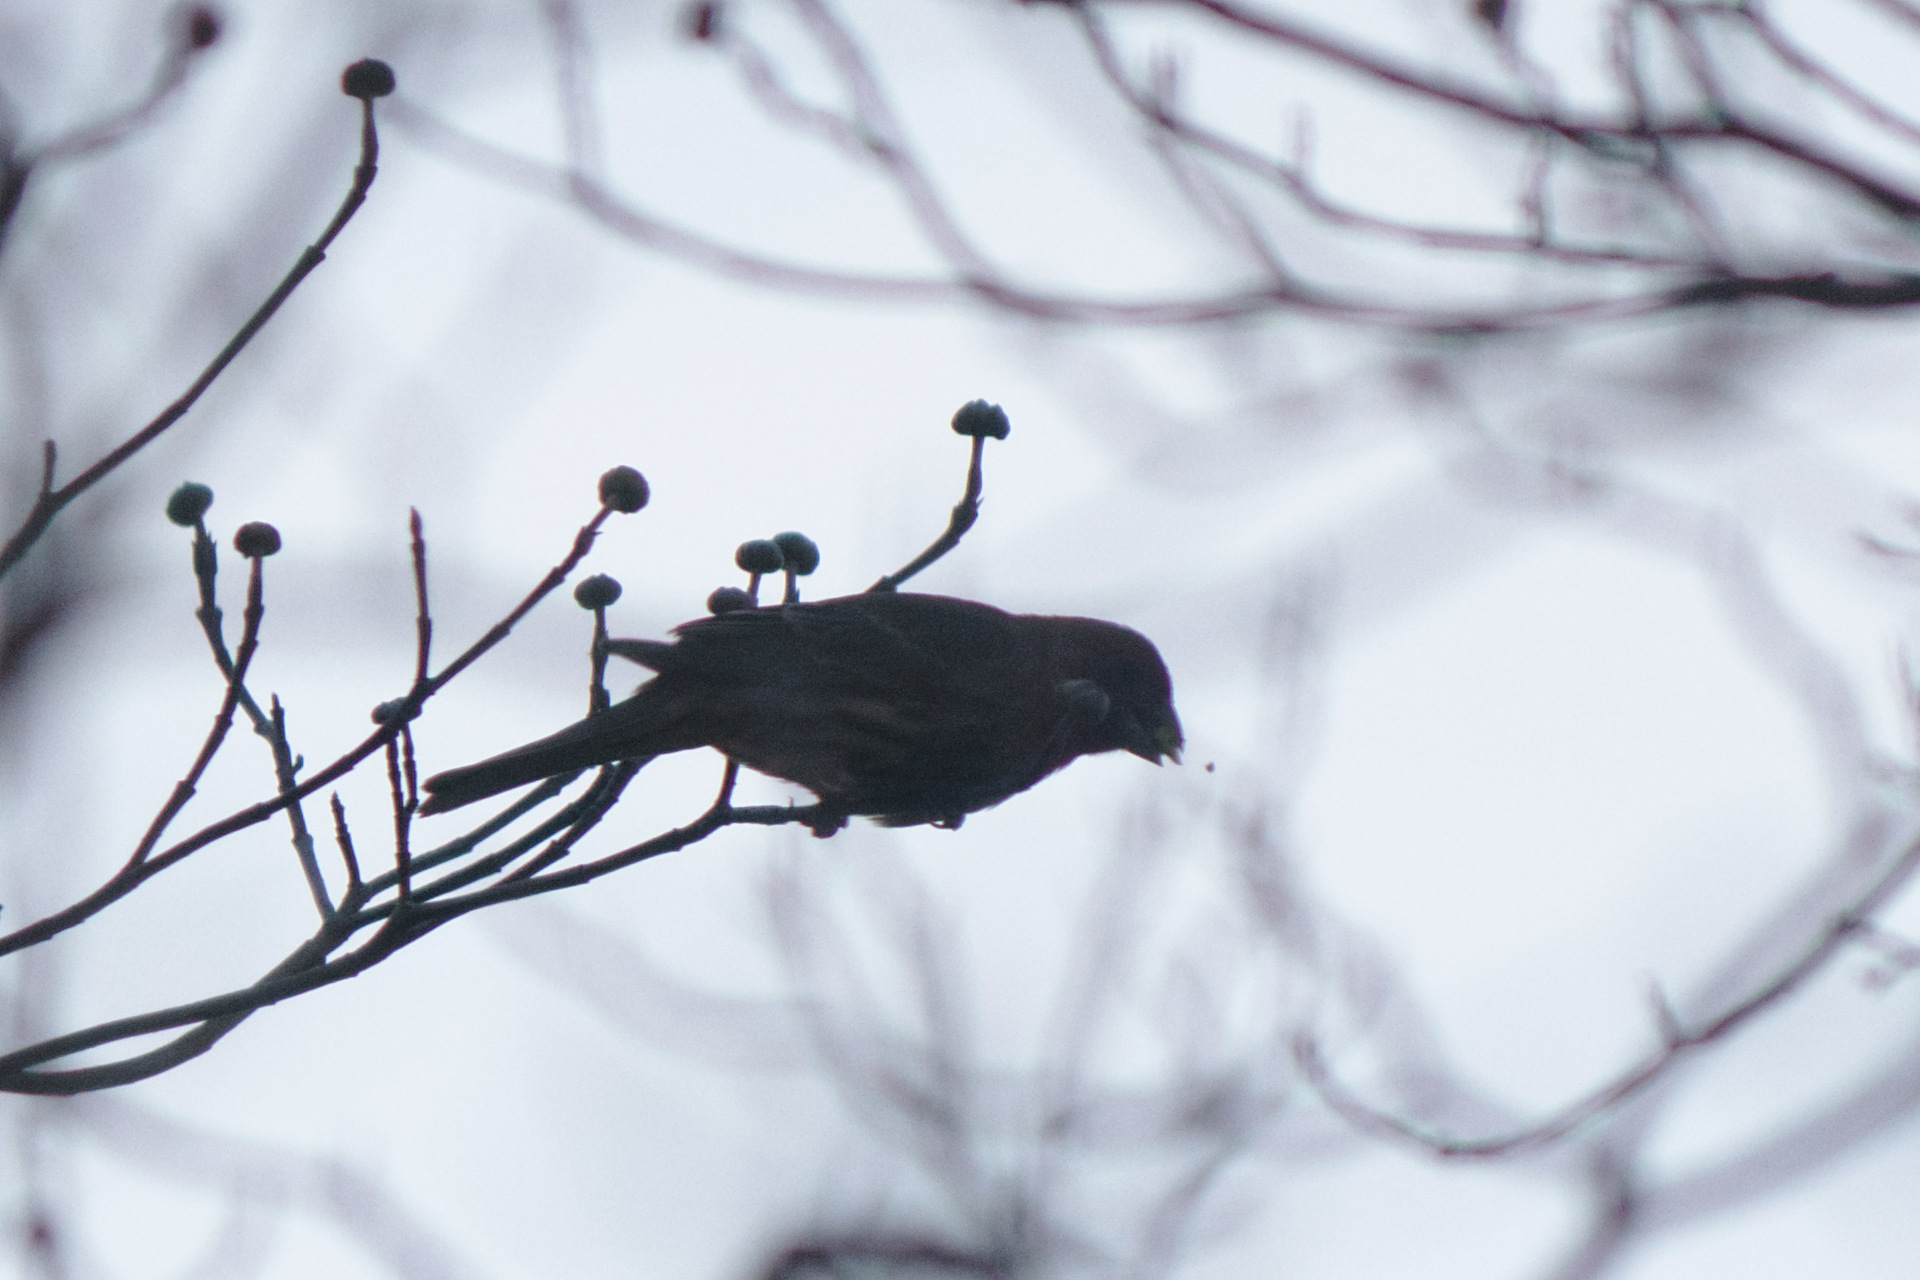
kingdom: Animalia
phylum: Chordata
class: Aves
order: Passeriformes
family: Fringillidae
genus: Haemorhous
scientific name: Haemorhous mexicanus
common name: House finch
